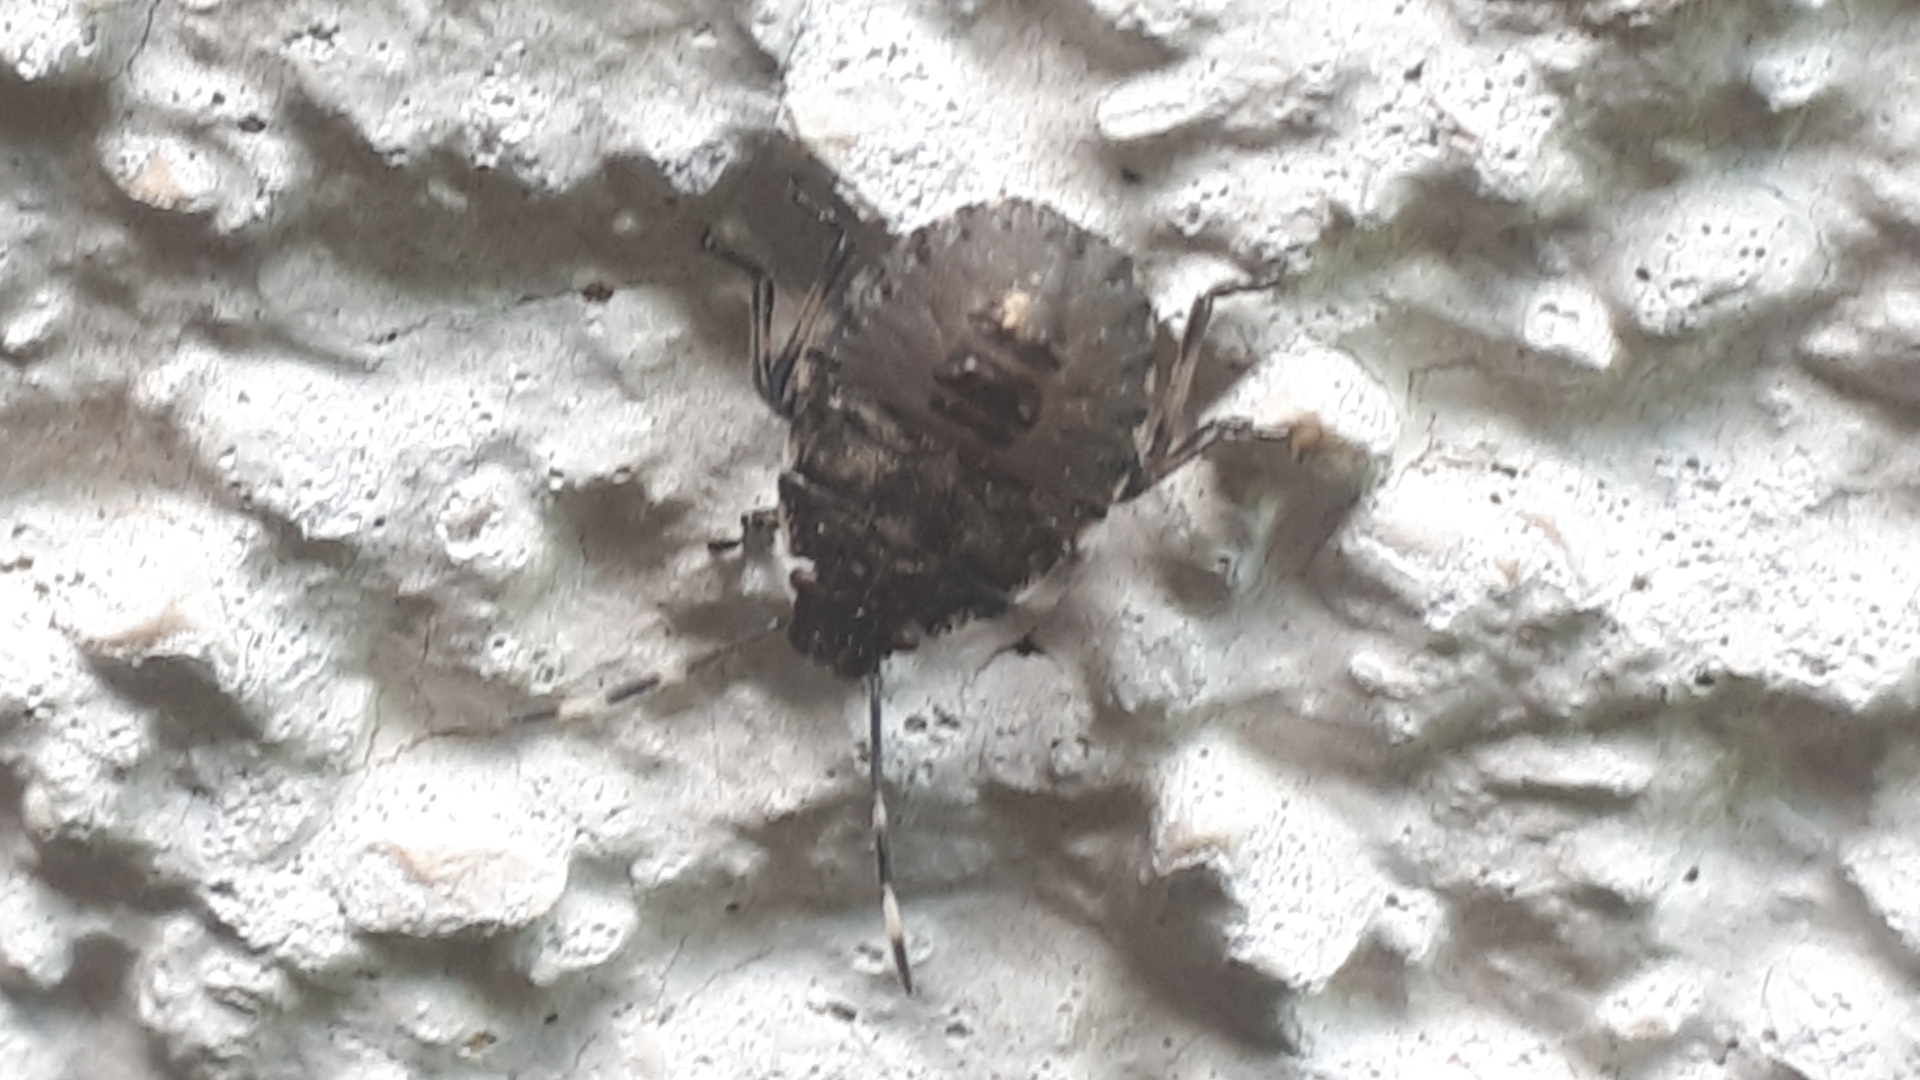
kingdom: Animalia
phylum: Arthropoda
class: Insecta
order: Hemiptera
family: Pentatomidae
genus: Rhaphigaster
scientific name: Rhaphigaster nebulosa
